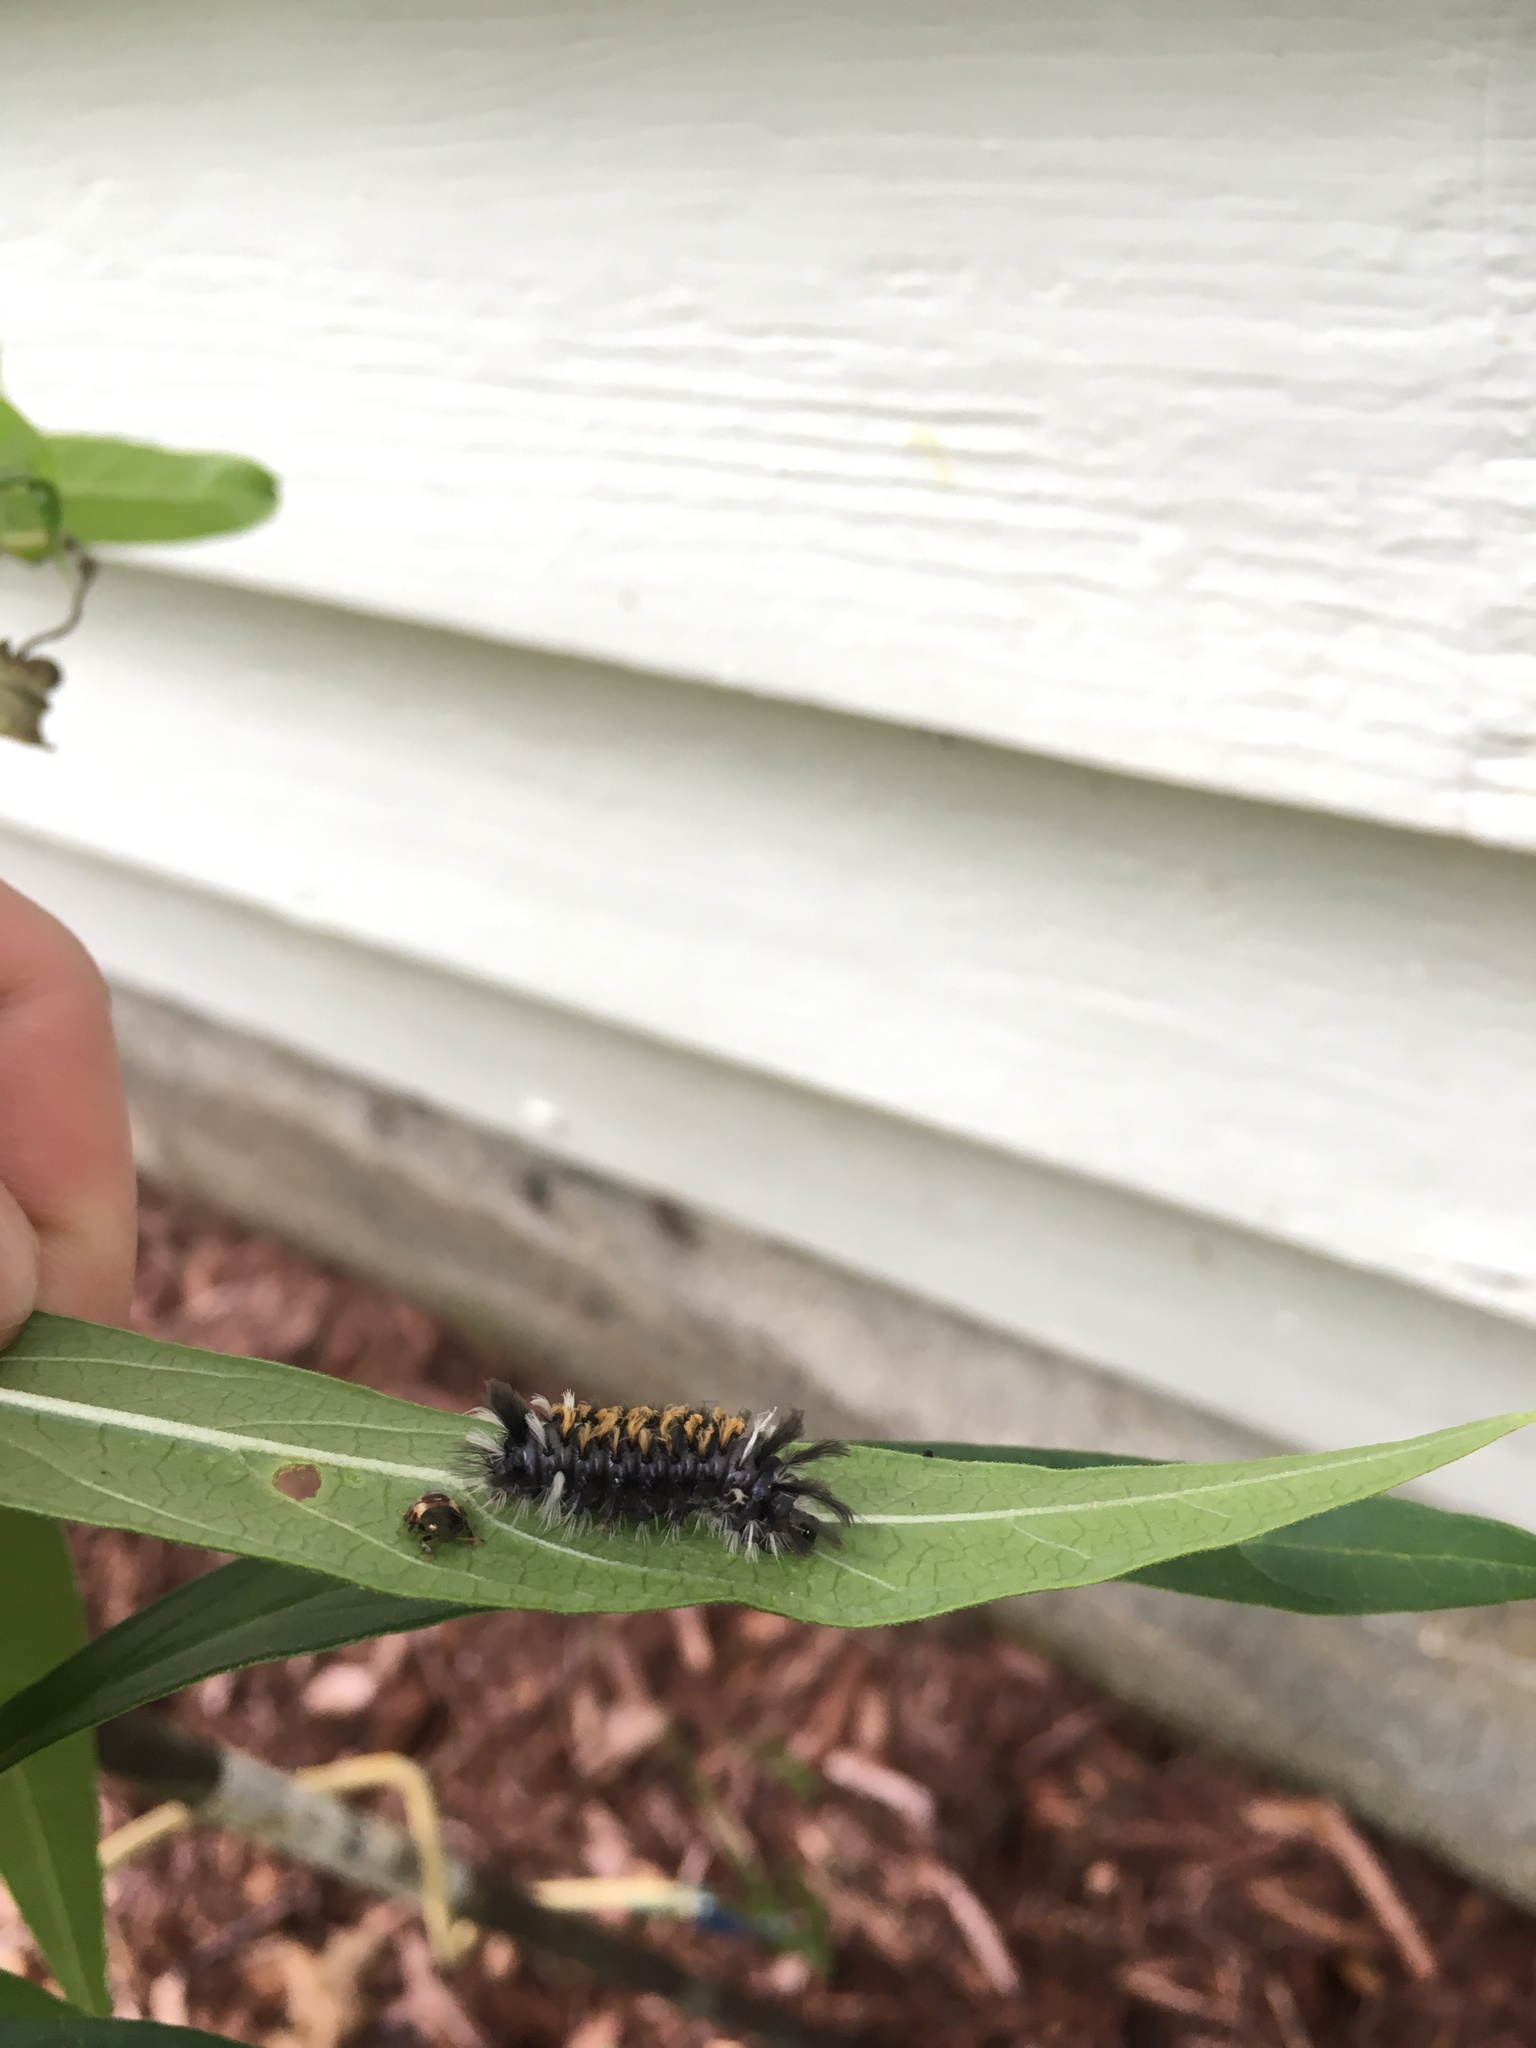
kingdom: Animalia
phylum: Arthropoda
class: Insecta
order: Lepidoptera
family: Erebidae
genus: Euchaetes
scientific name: Euchaetes egle
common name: Milkweed tussock moth
